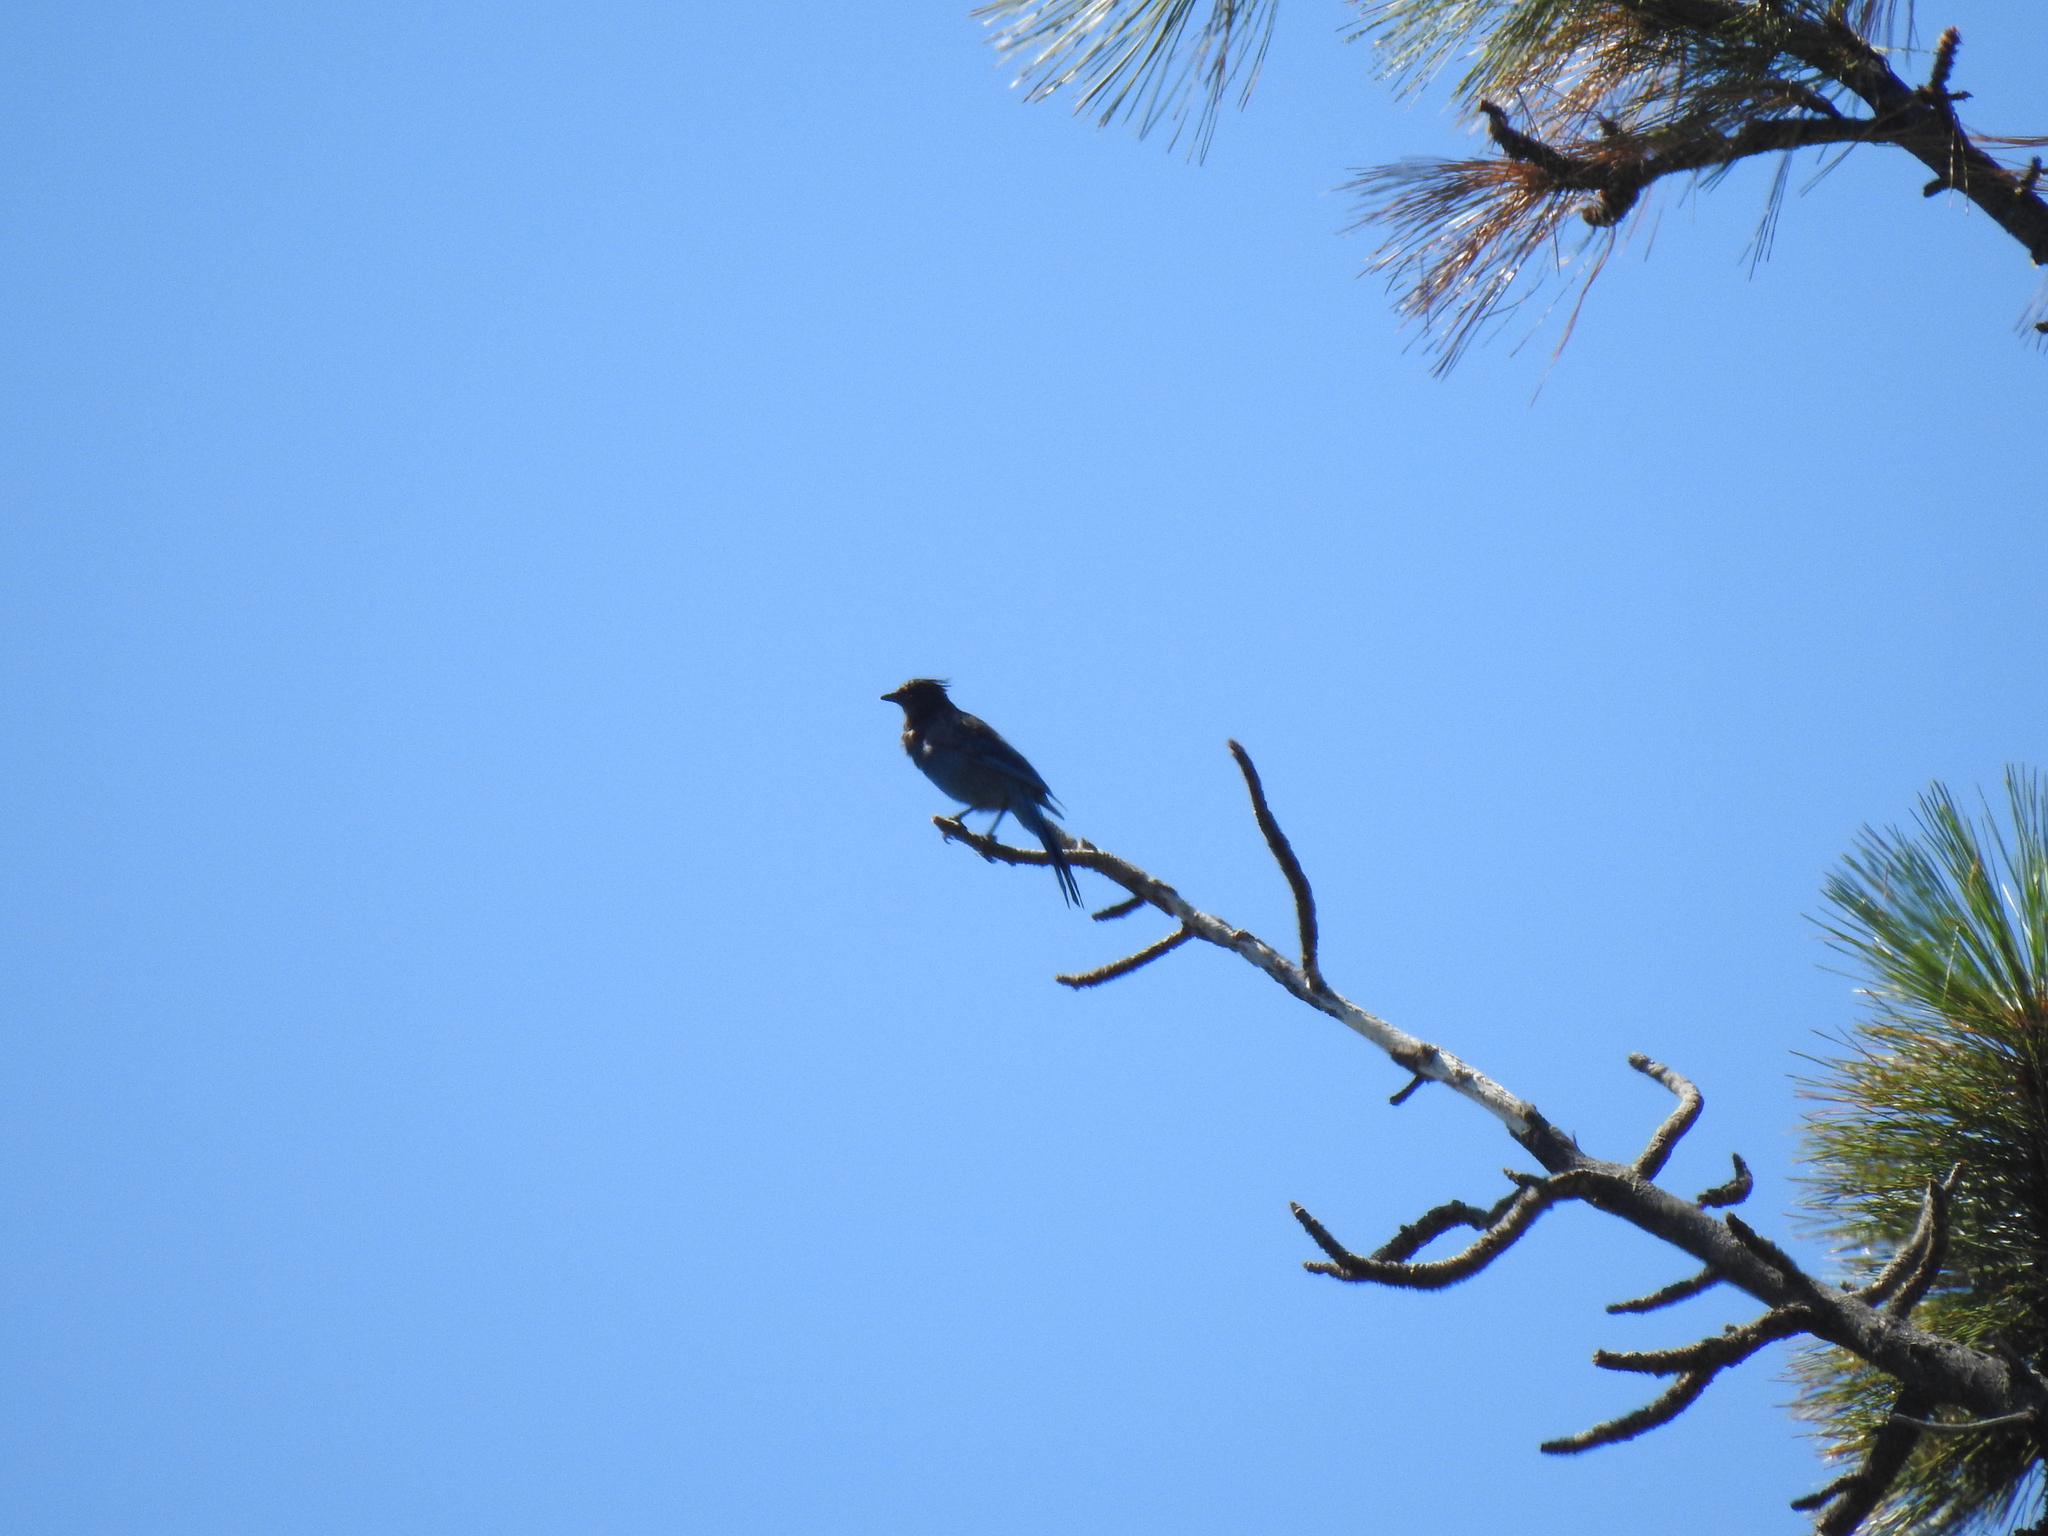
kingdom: Animalia
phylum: Chordata
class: Aves
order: Passeriformes
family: Corvidae
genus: Cyanocitta
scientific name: Cyanocitta stelleri
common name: Steller's jay
